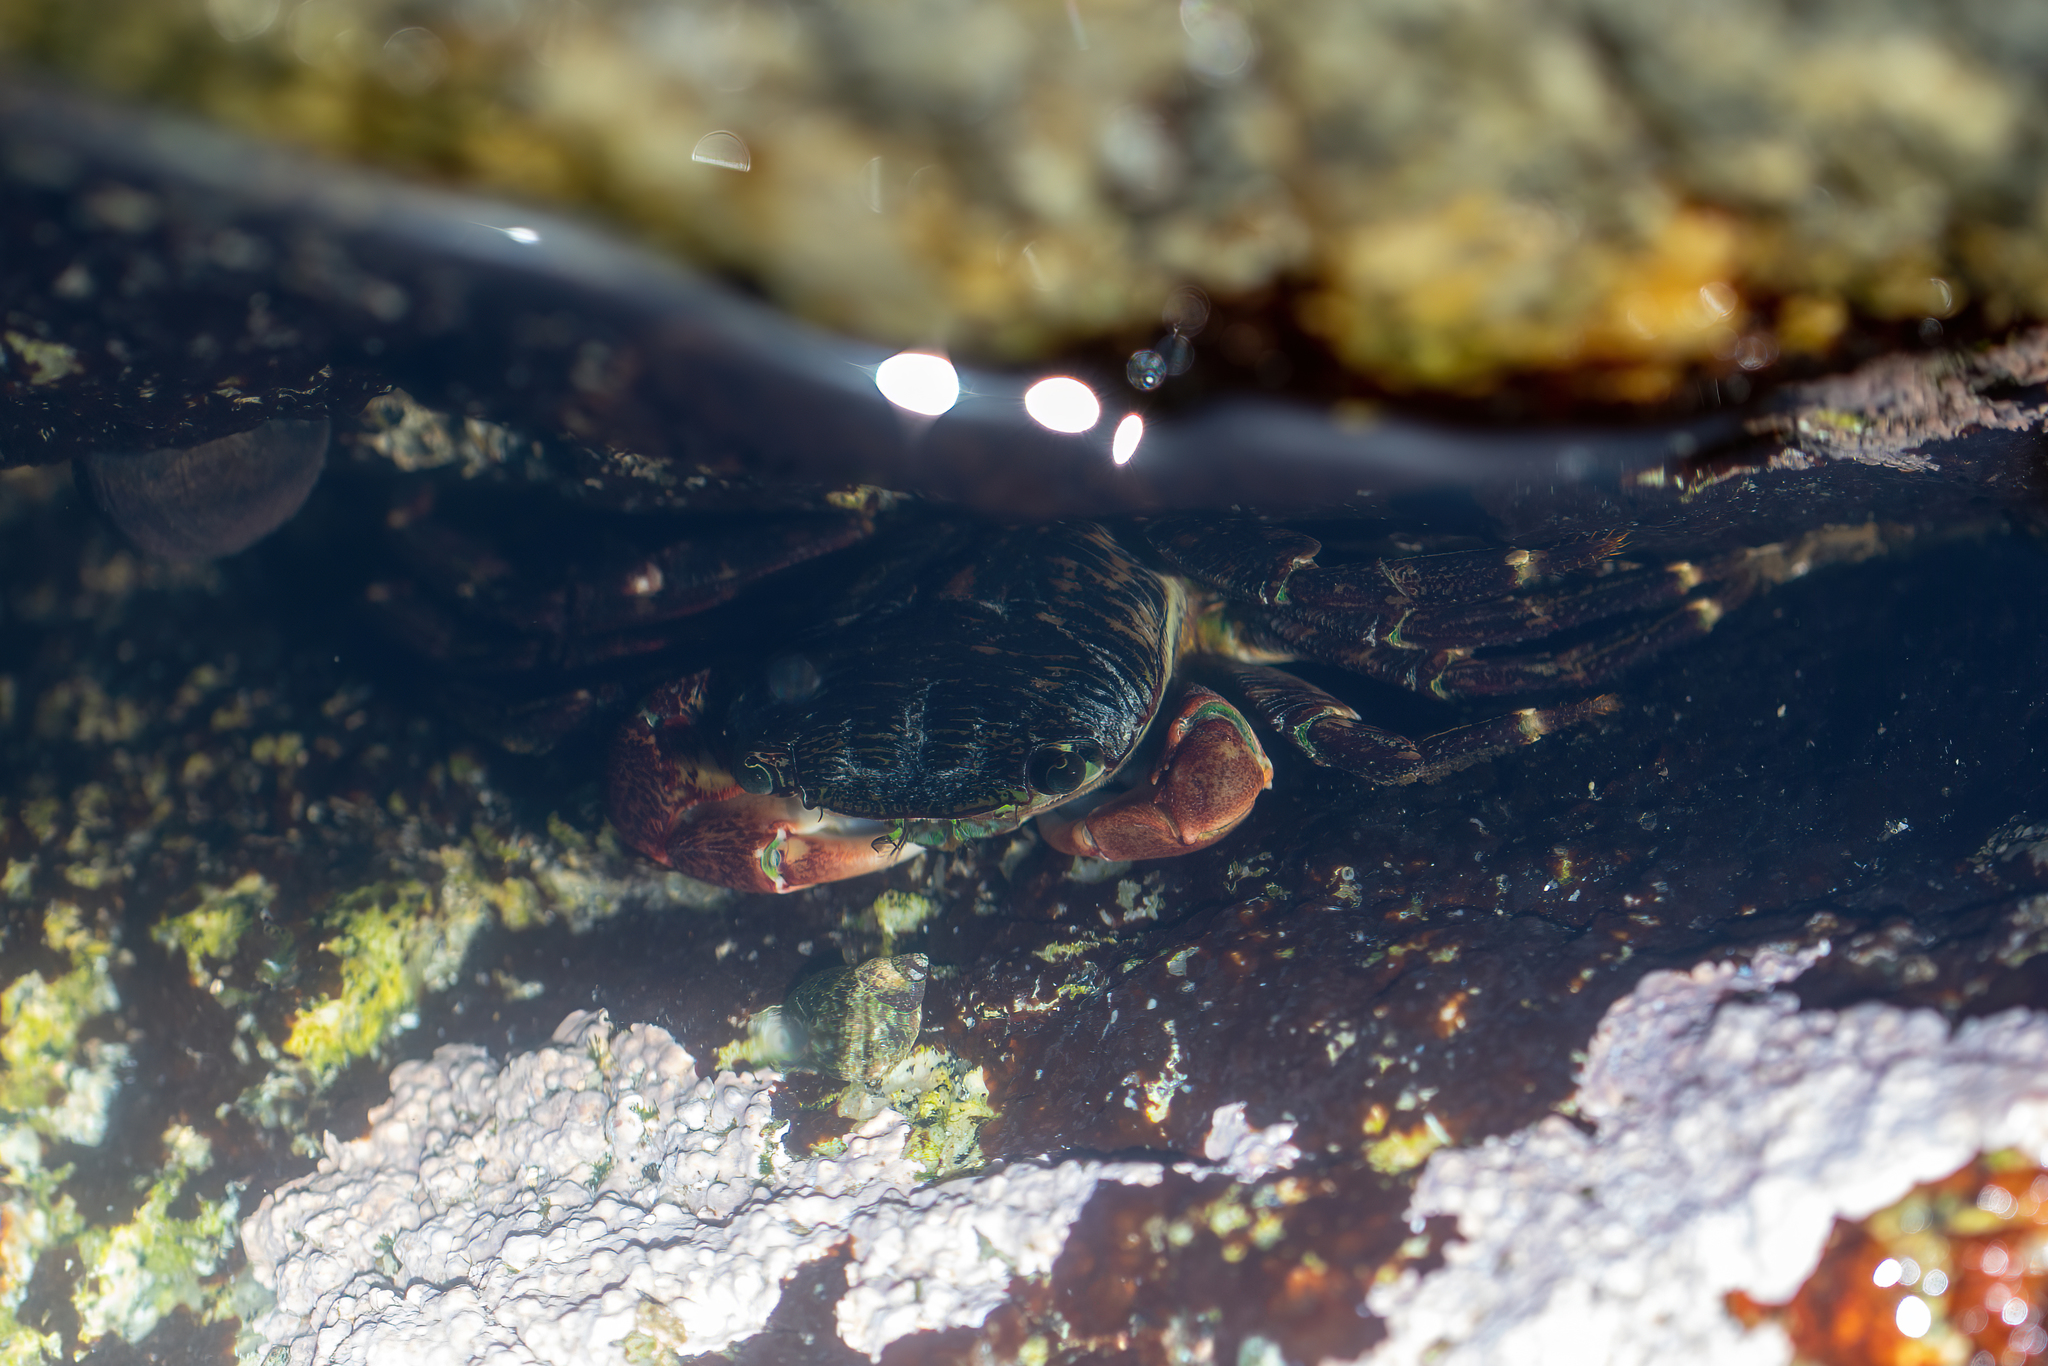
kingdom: Animalia
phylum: Arthropoda
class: Malacostraca
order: Decapoda
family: Grapsidae
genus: Pachygrapsus
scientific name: Pachygrapsus crassipes
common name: Striped shore crab
